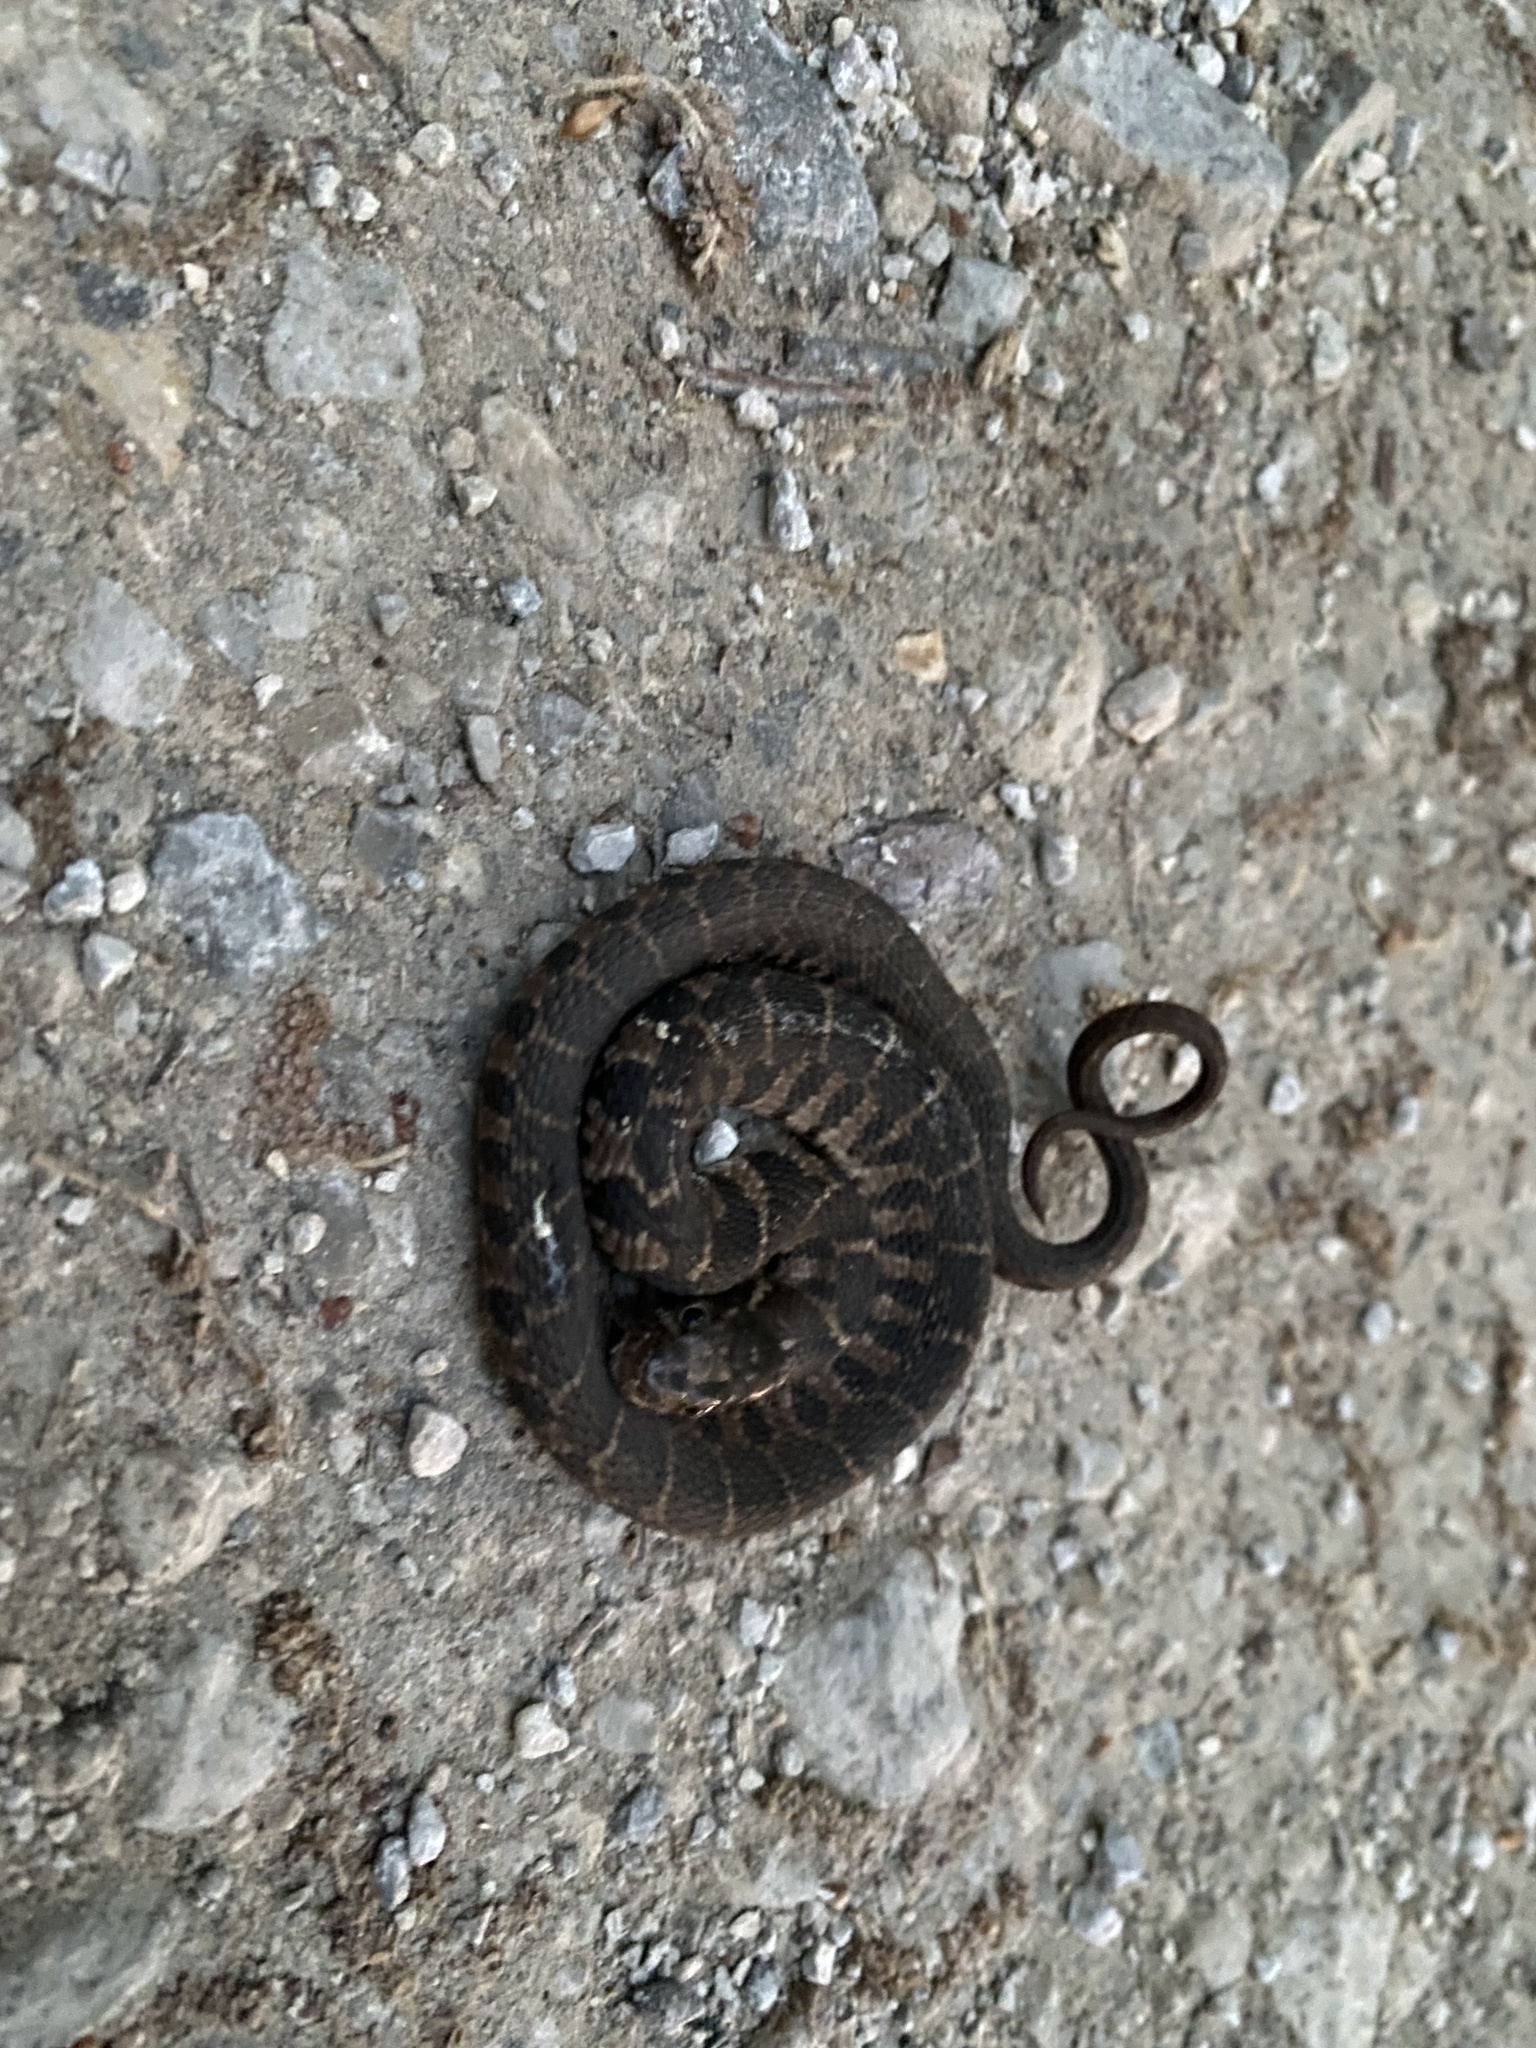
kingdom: Animalia
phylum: Chordata
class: Squamata
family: Colubridae
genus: Nerodia
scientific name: Nerodia erythrogaster
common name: Plainbelly water snake
